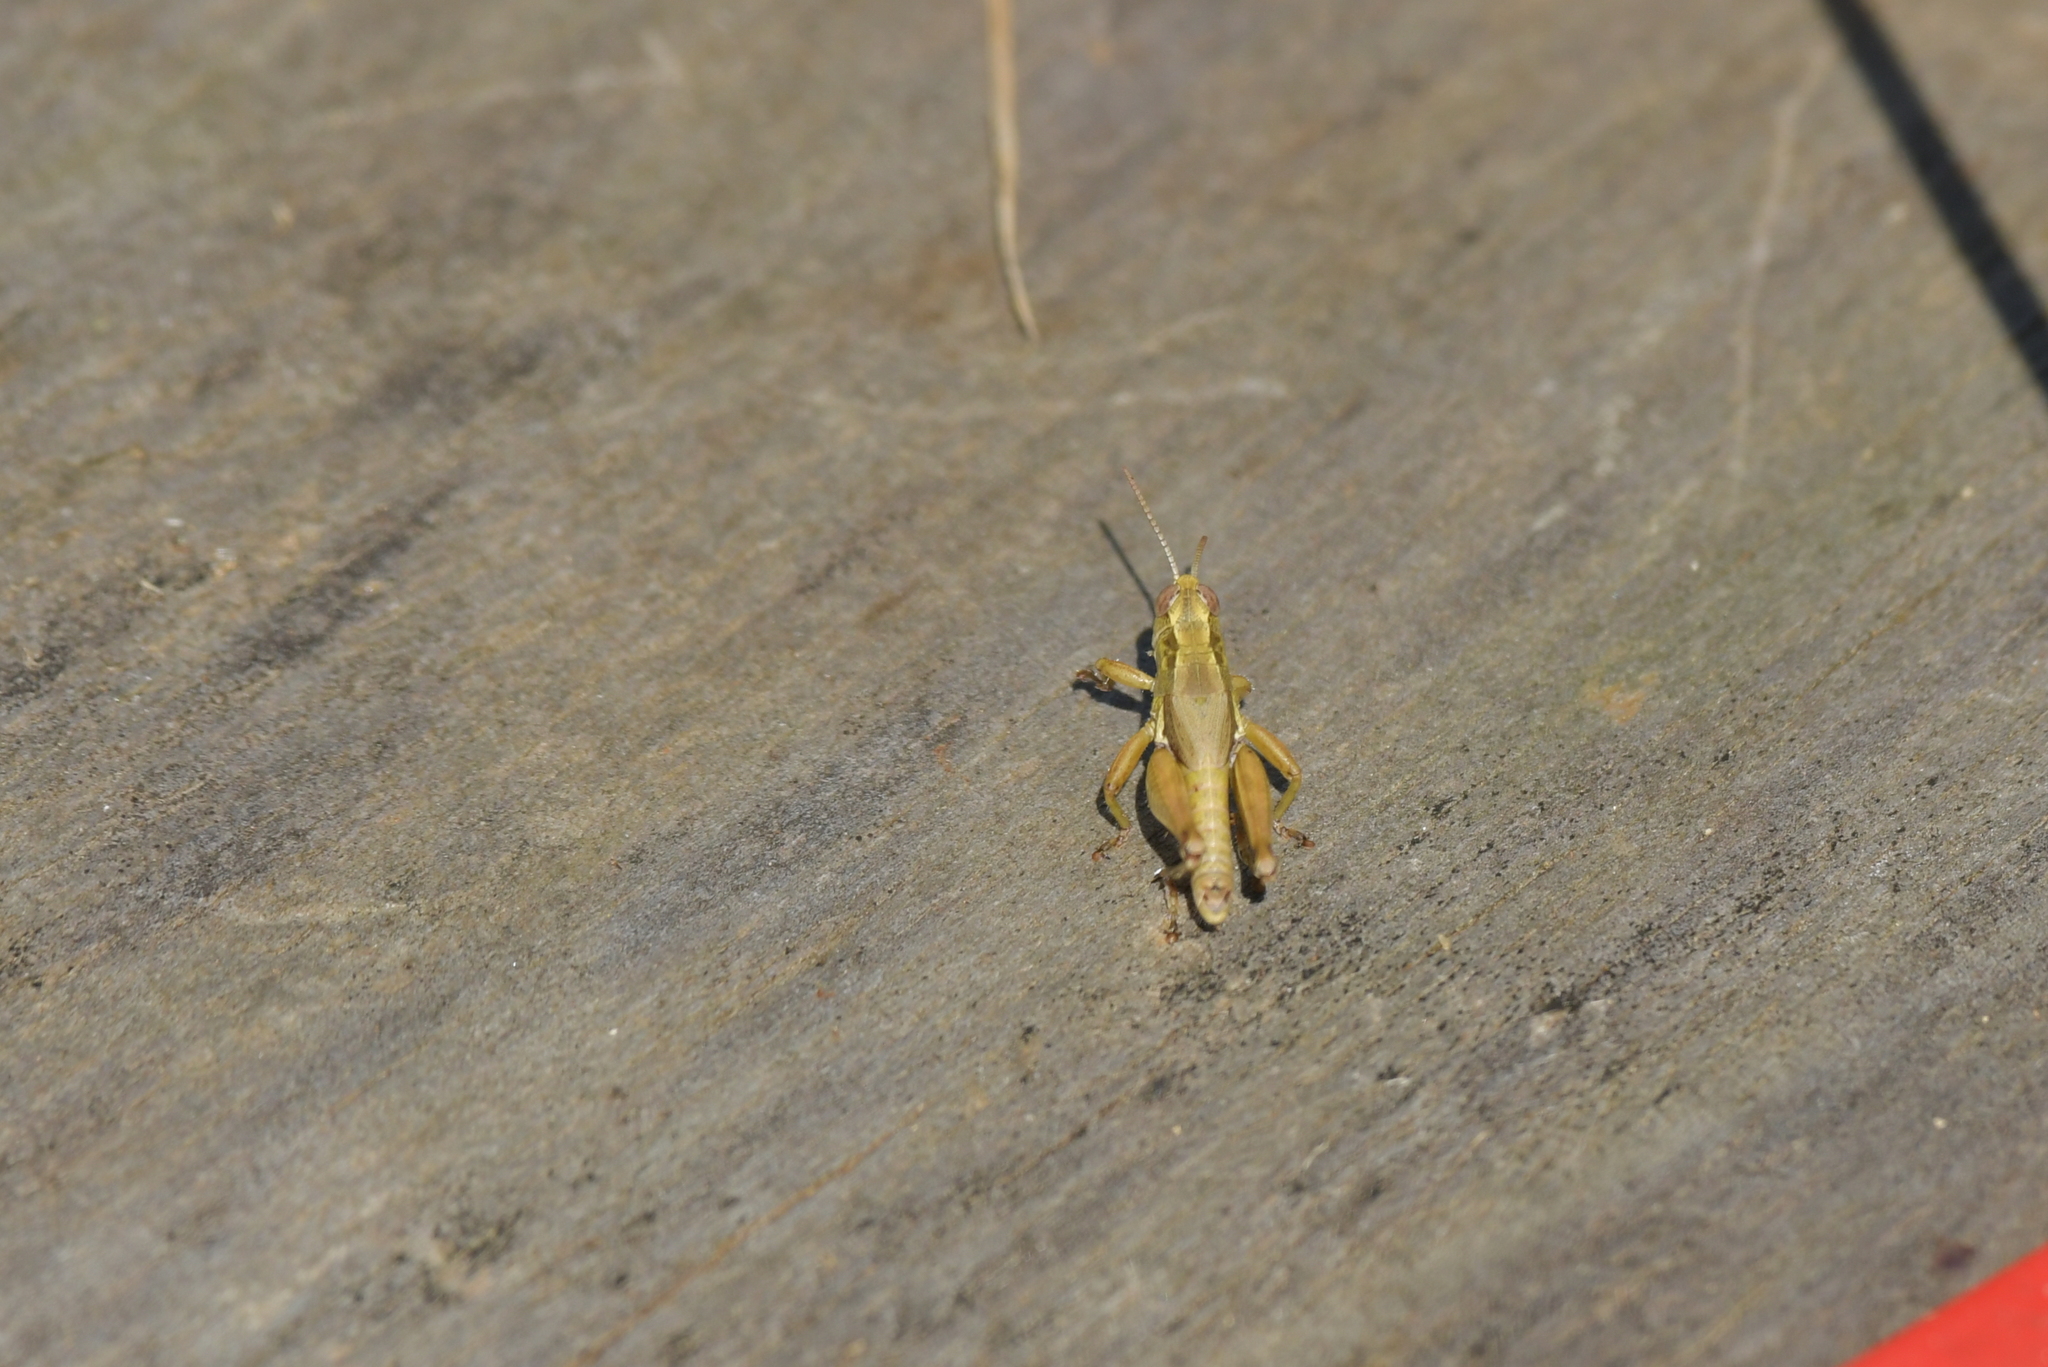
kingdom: Animalia
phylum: Arthropoda
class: Insecta
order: Orthoptera
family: Acrididae
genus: Phaulacridium
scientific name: Phaulacridium marginale
